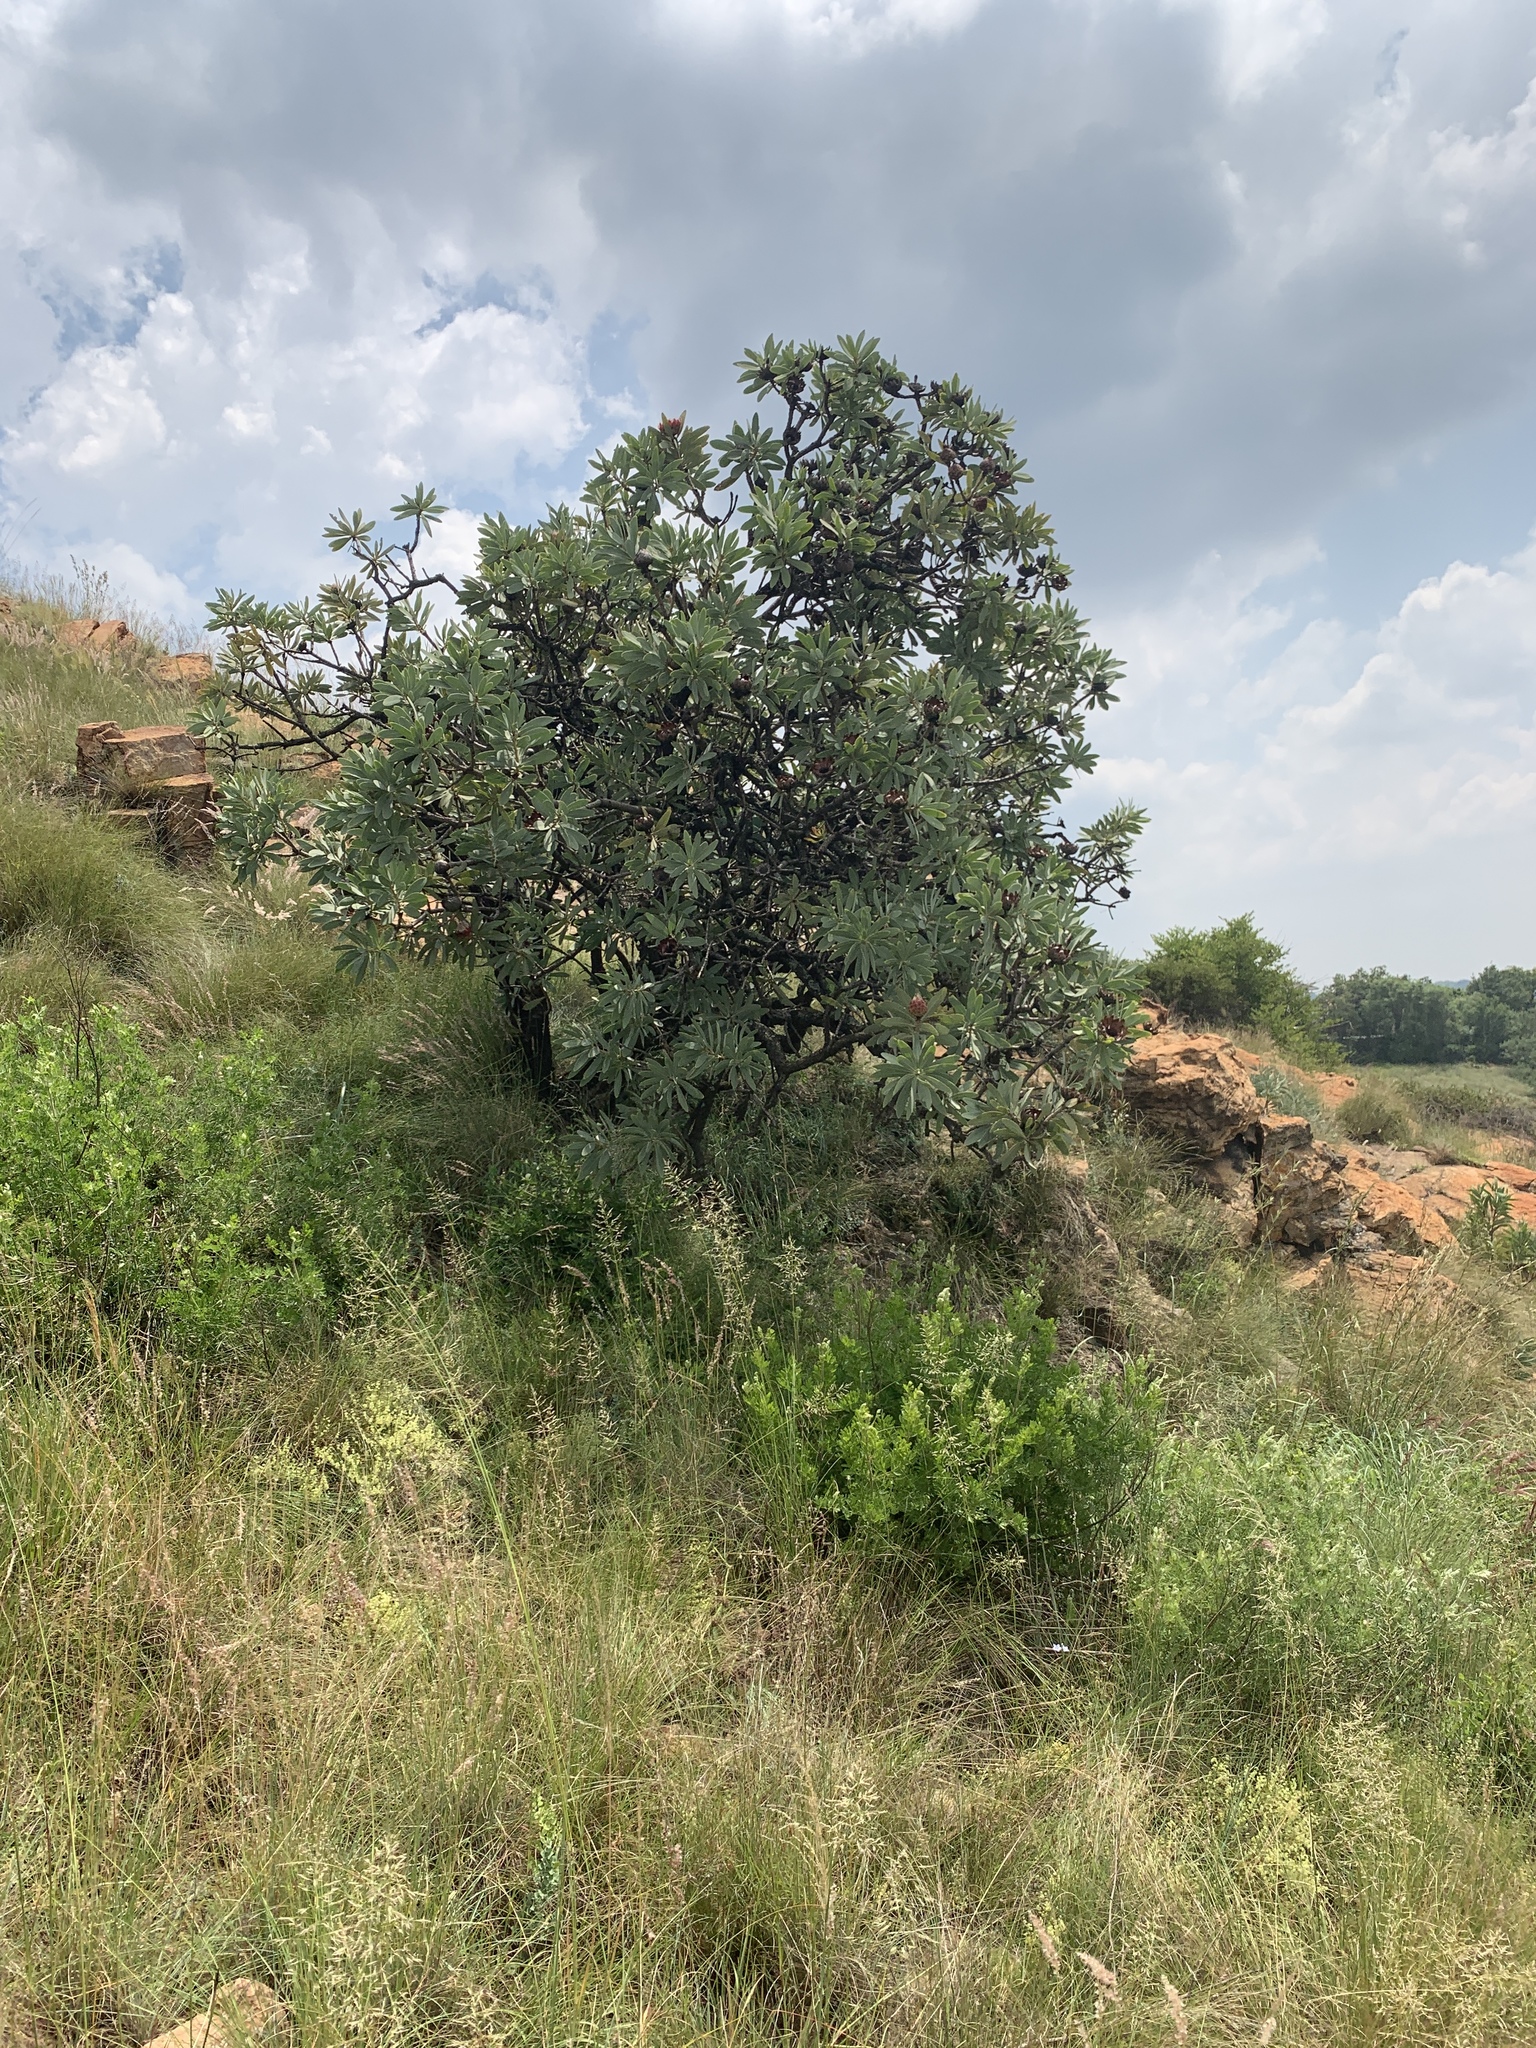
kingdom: Plantae
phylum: Tracheophyta
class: Magnoliopsida
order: Proteales
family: Proteaceae
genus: Protea
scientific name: Protea caffra
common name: Common sugarbush
